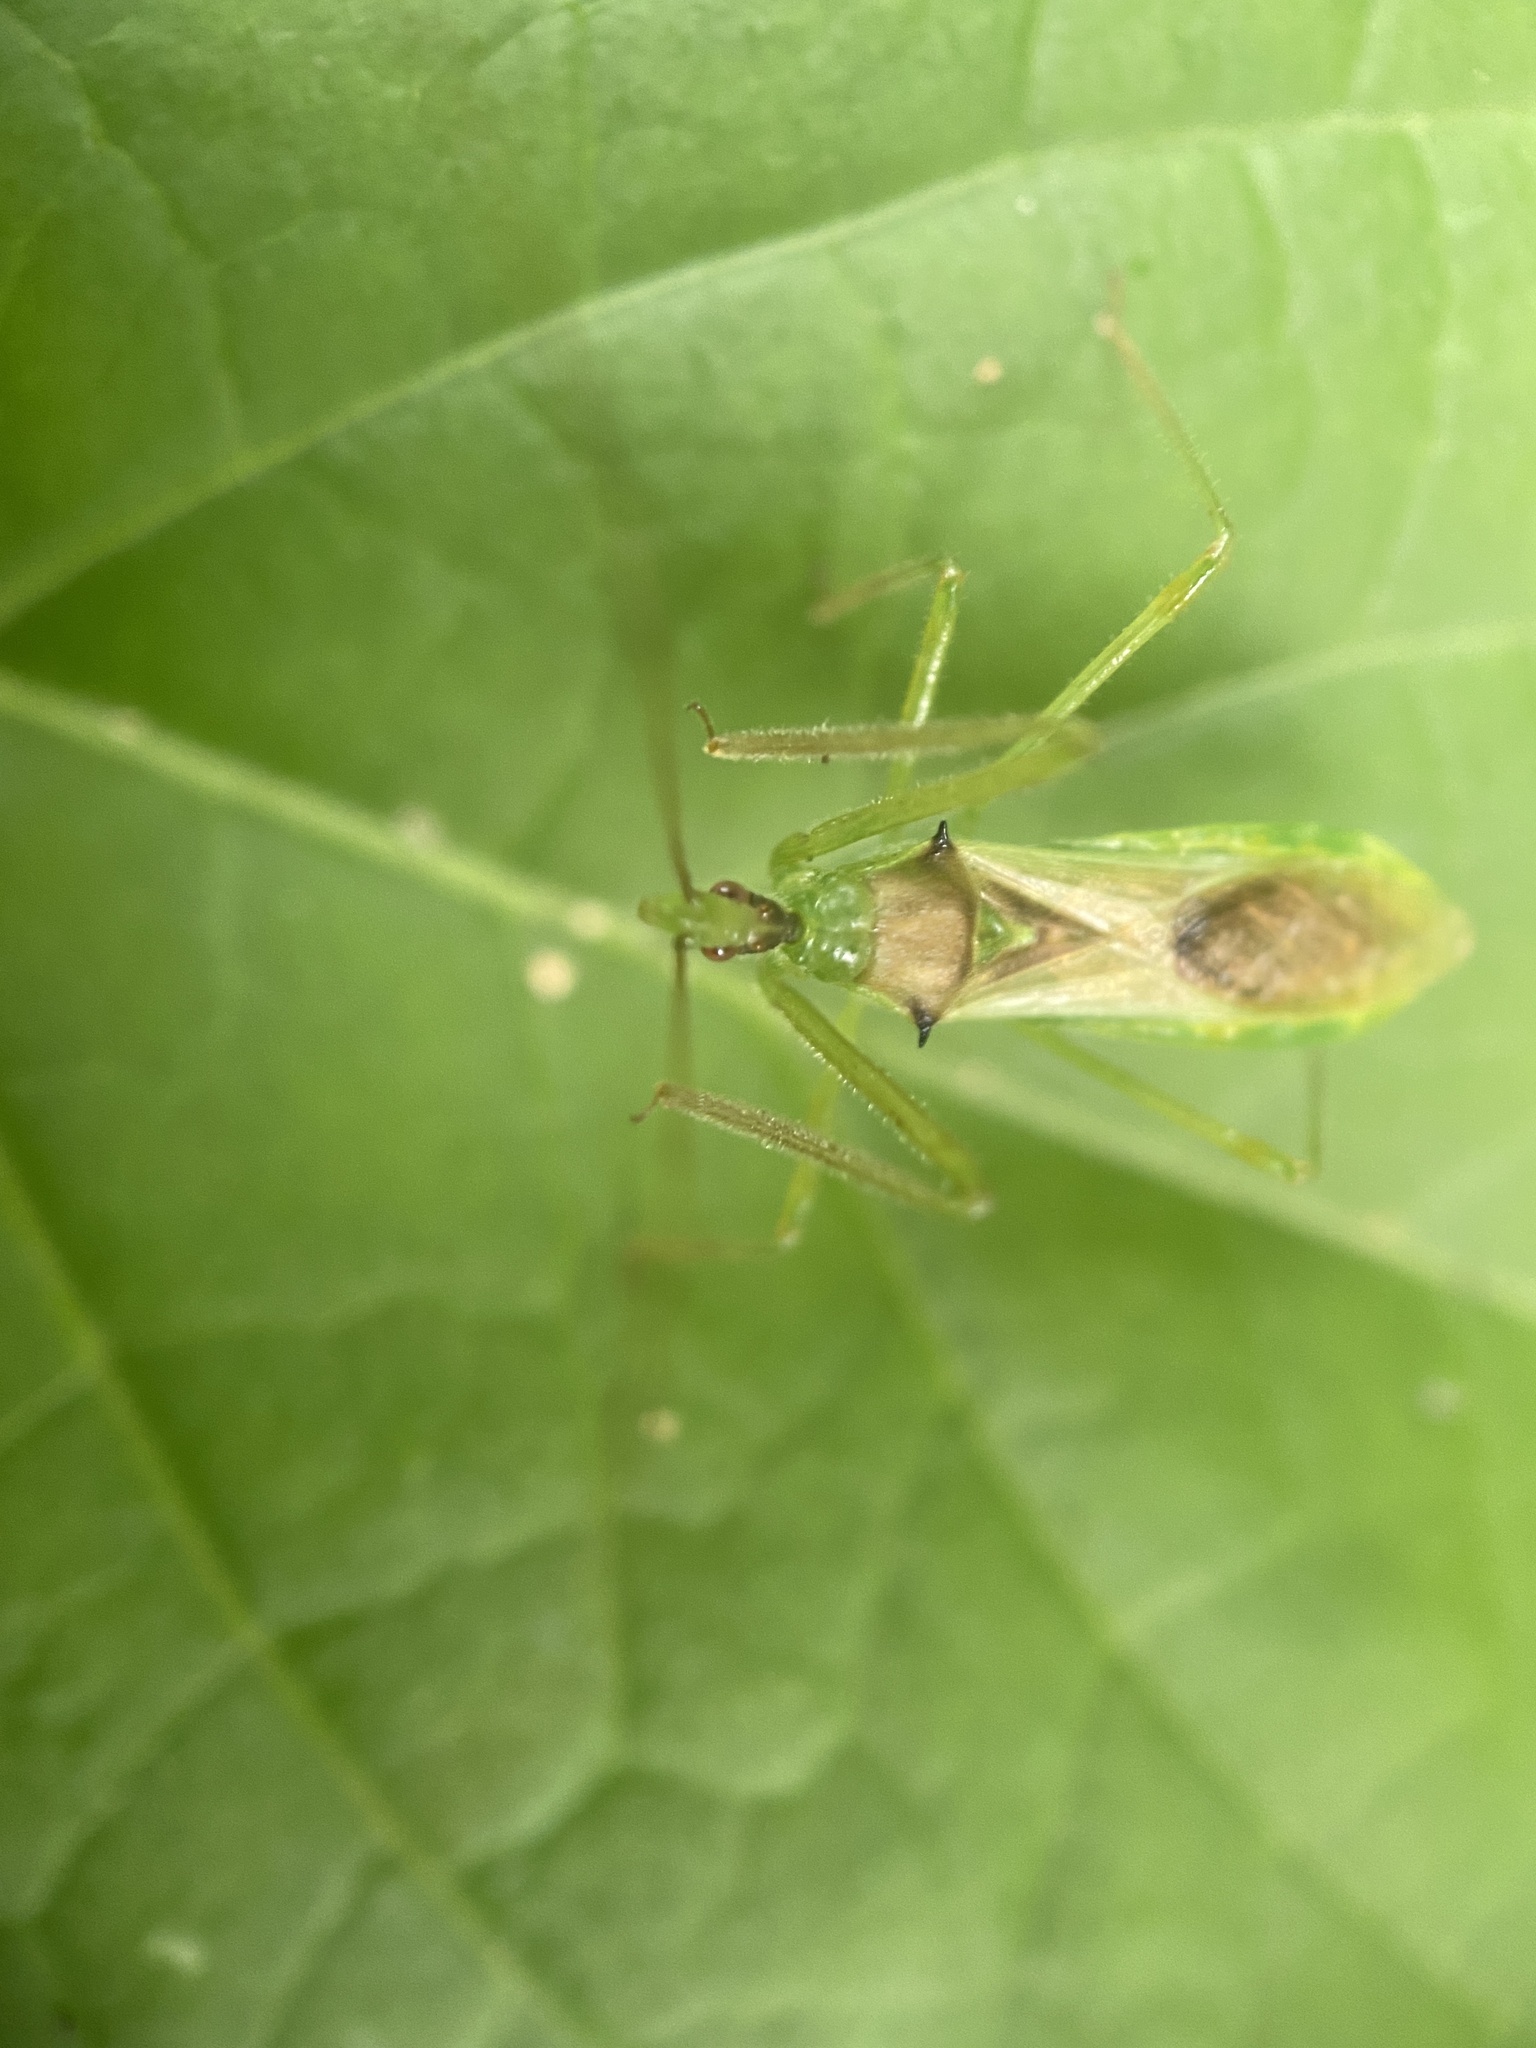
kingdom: Animalia
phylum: Arthropoda
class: Insecta
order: Hemiptera
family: Reduviidae
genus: Zelus
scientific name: Zelus luridus
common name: Pale green assassin bug
